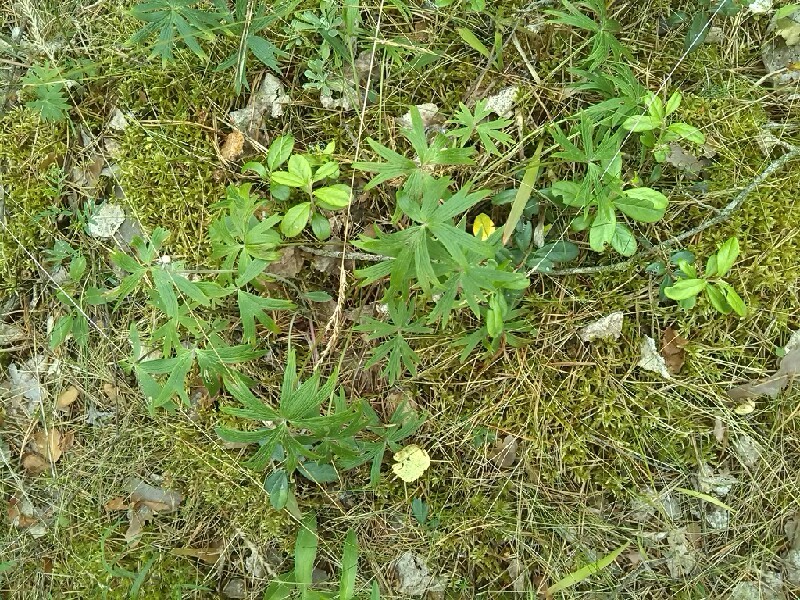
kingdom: Plantae
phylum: Tracheophyta
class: Magnoliopsida
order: Asterales
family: Asteraceae
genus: Antennaria
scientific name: Antennaria dioica
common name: Mountain everlasting
